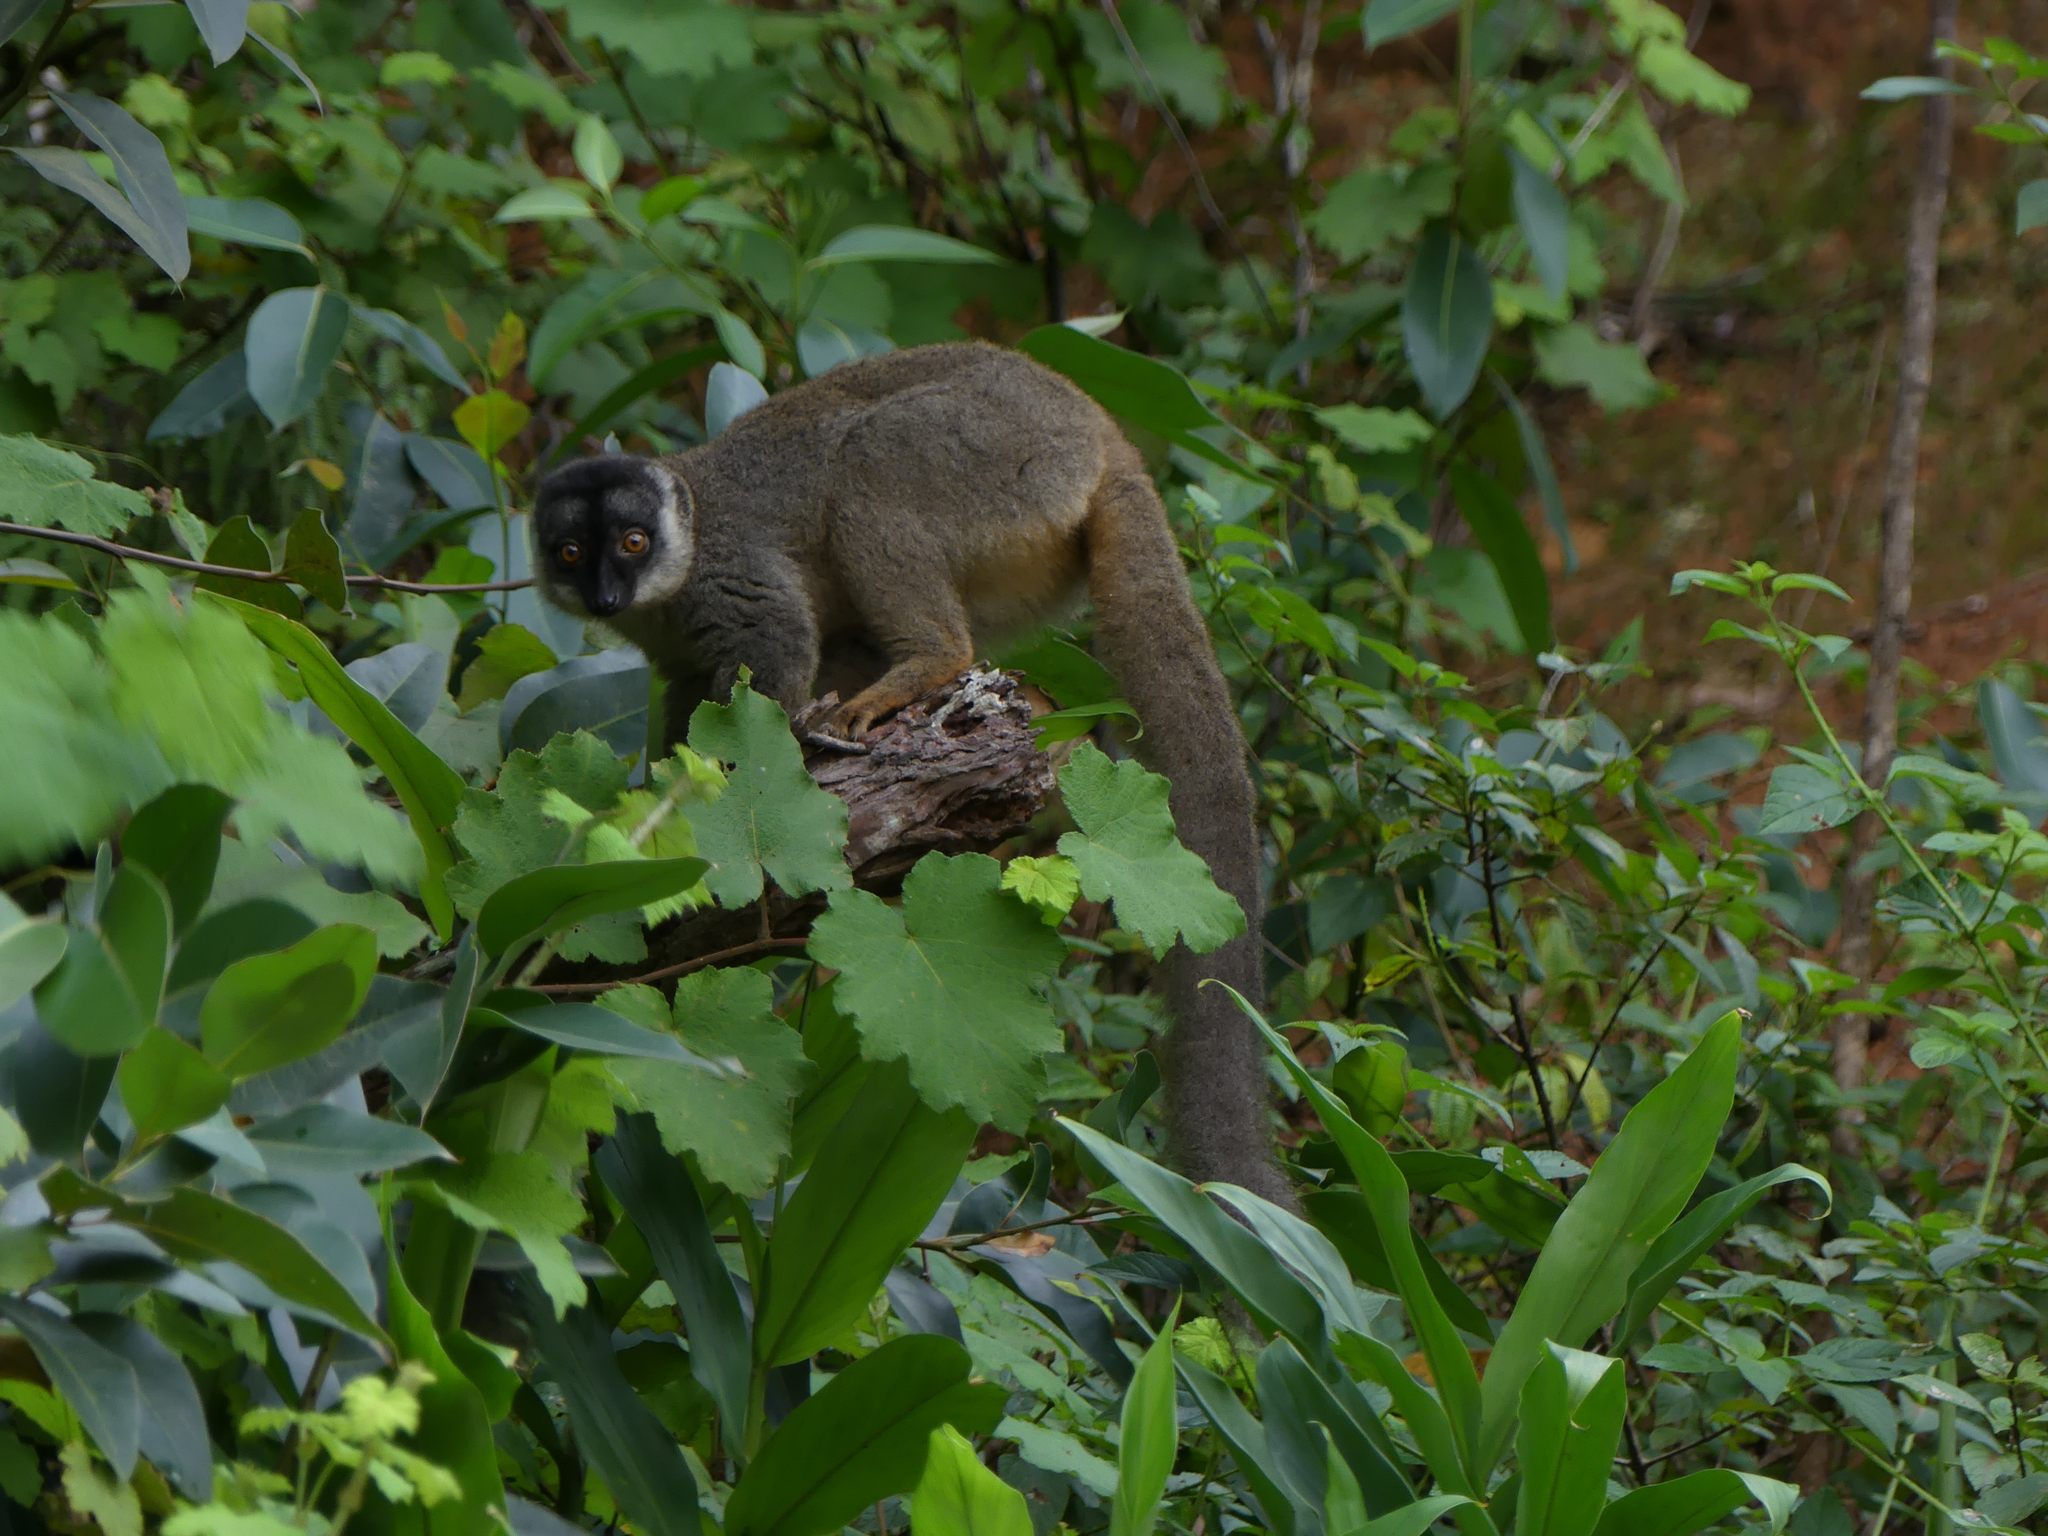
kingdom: Animalia
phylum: Chordata
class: Mammalia
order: Primates
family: Lemuridae
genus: Eulemur
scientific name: Eulemur fulvus
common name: Brown lemur
